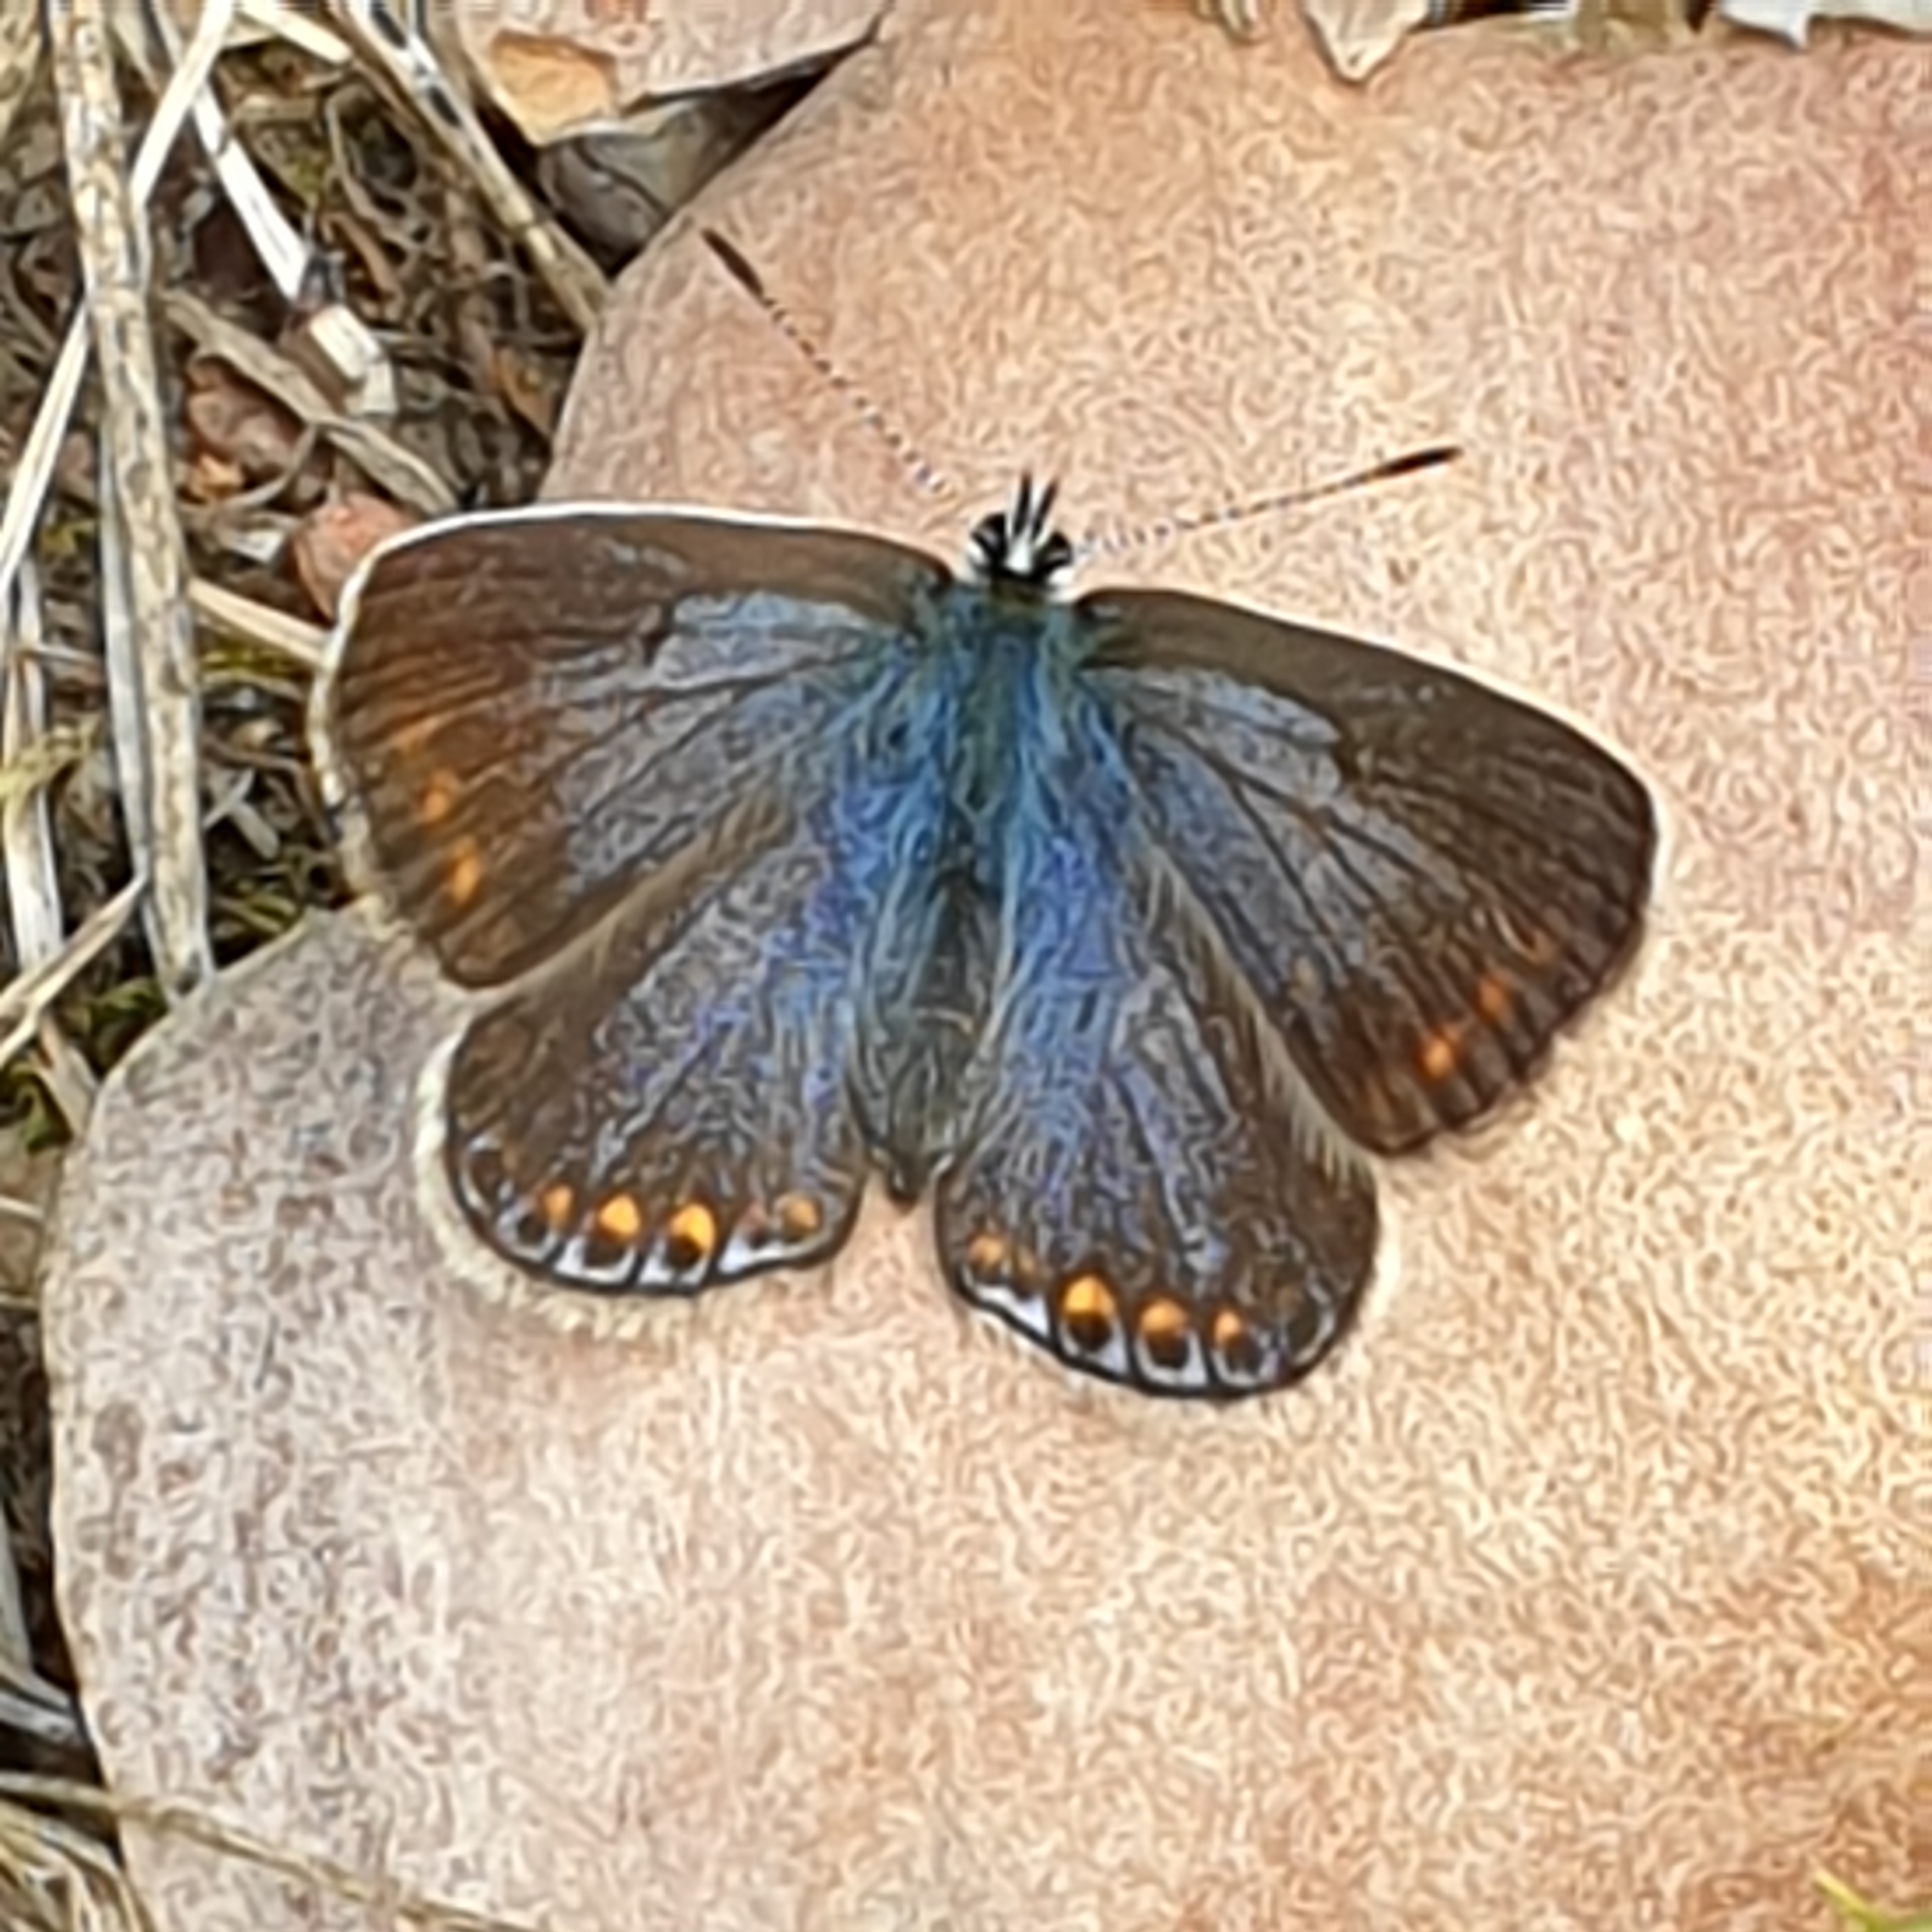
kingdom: Animalia
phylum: Arthropoda
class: Insecta
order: Lepidoptera
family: Lycaenidae
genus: Polyommatus
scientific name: Polyommatus icarus
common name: Common blue
